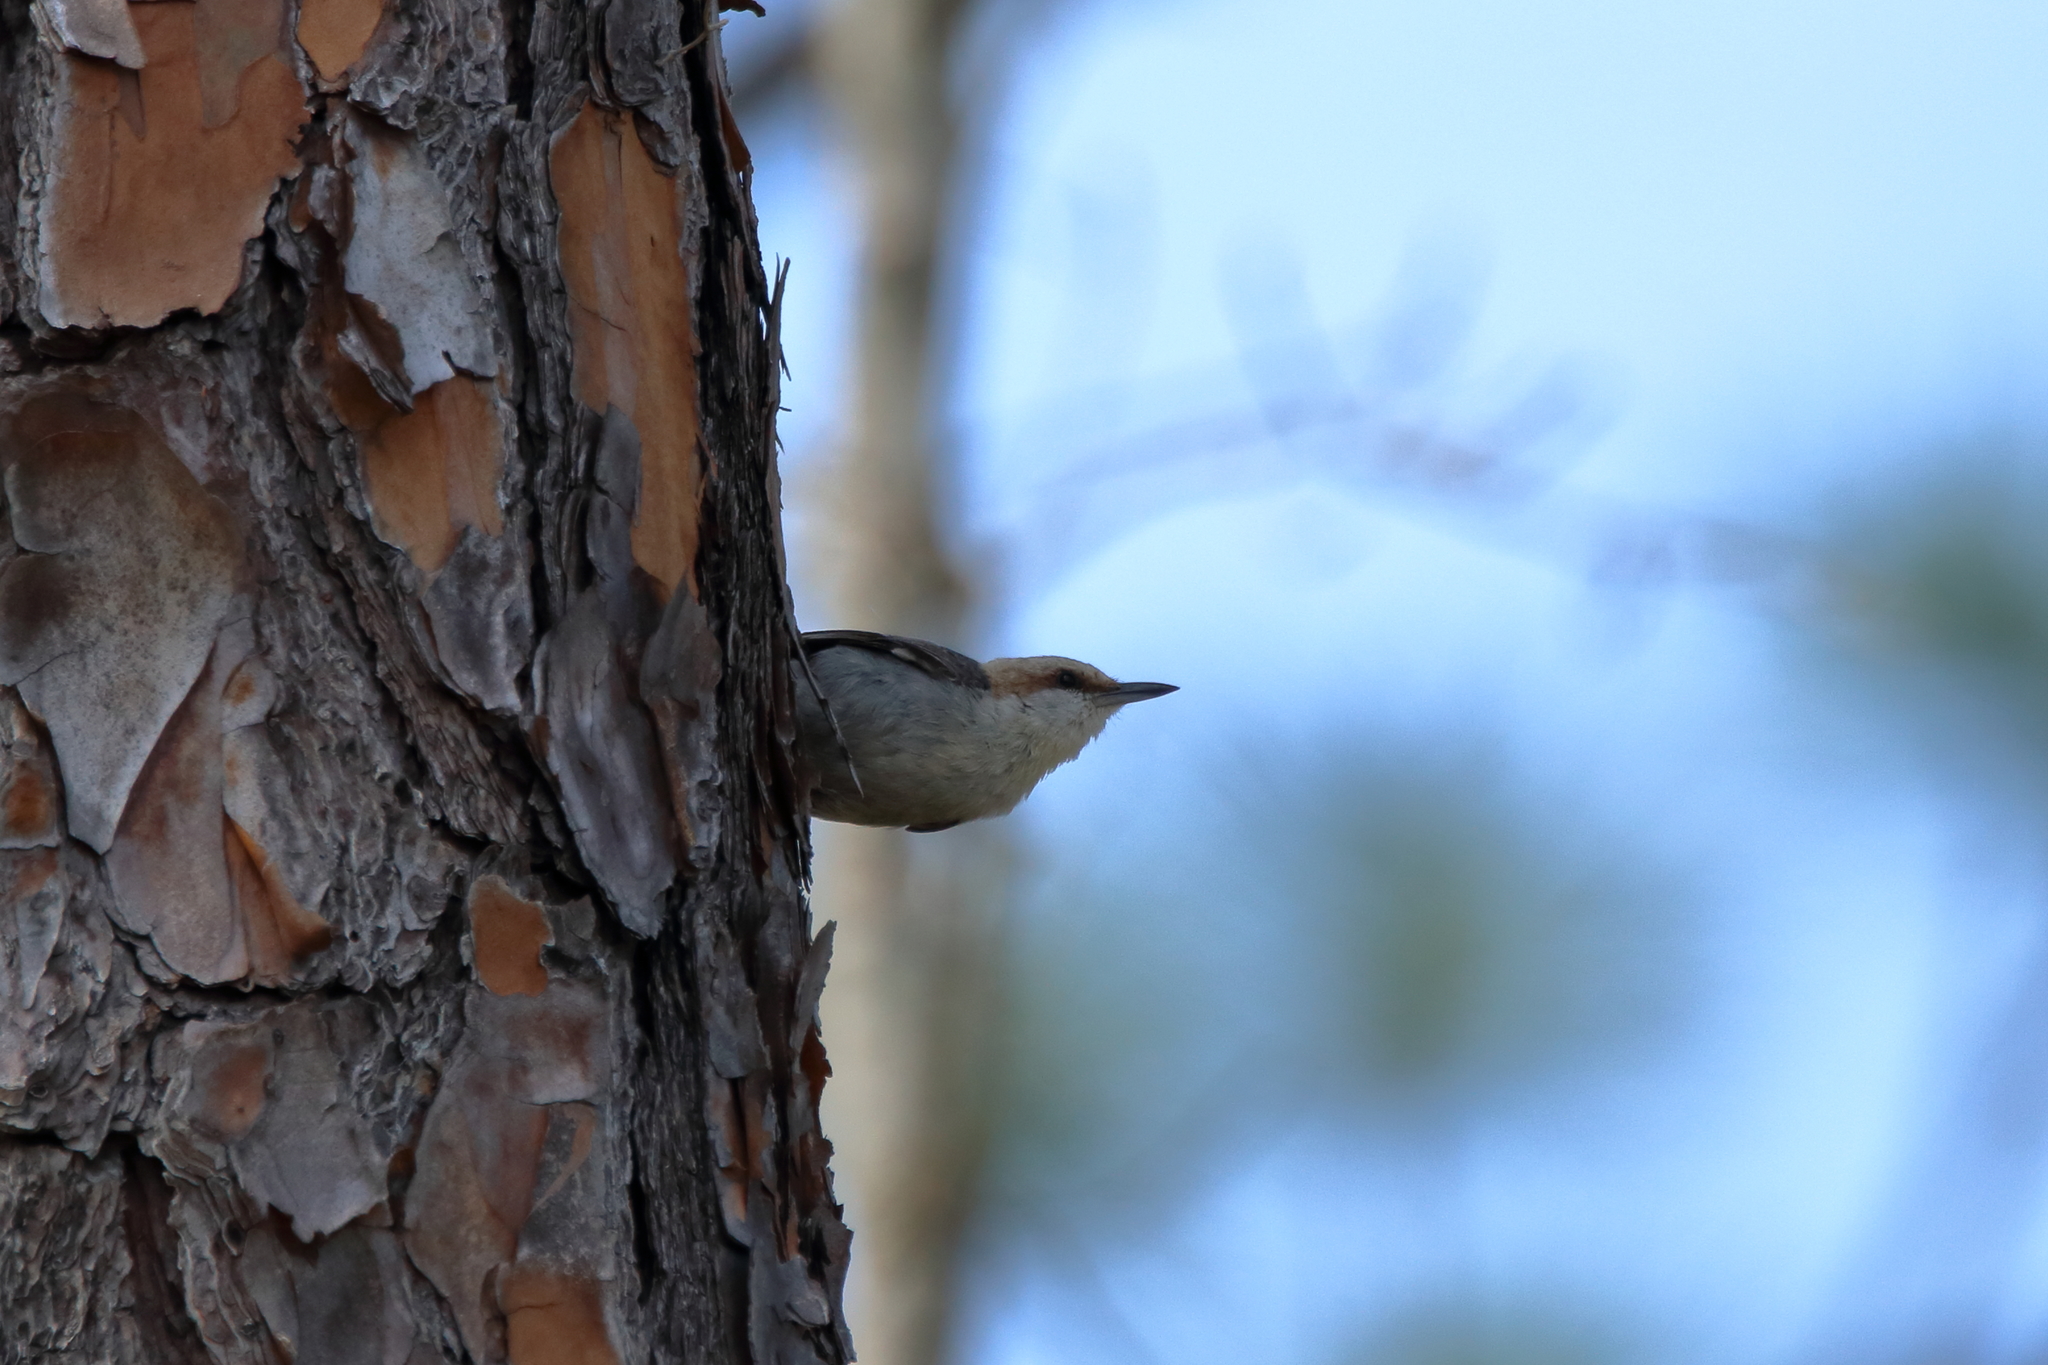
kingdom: Animalia
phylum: Chordata
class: Aves
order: Passeriformes
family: Sittidae
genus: Sitta
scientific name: Sitta pusilla
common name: Brown-headed nuthatch
